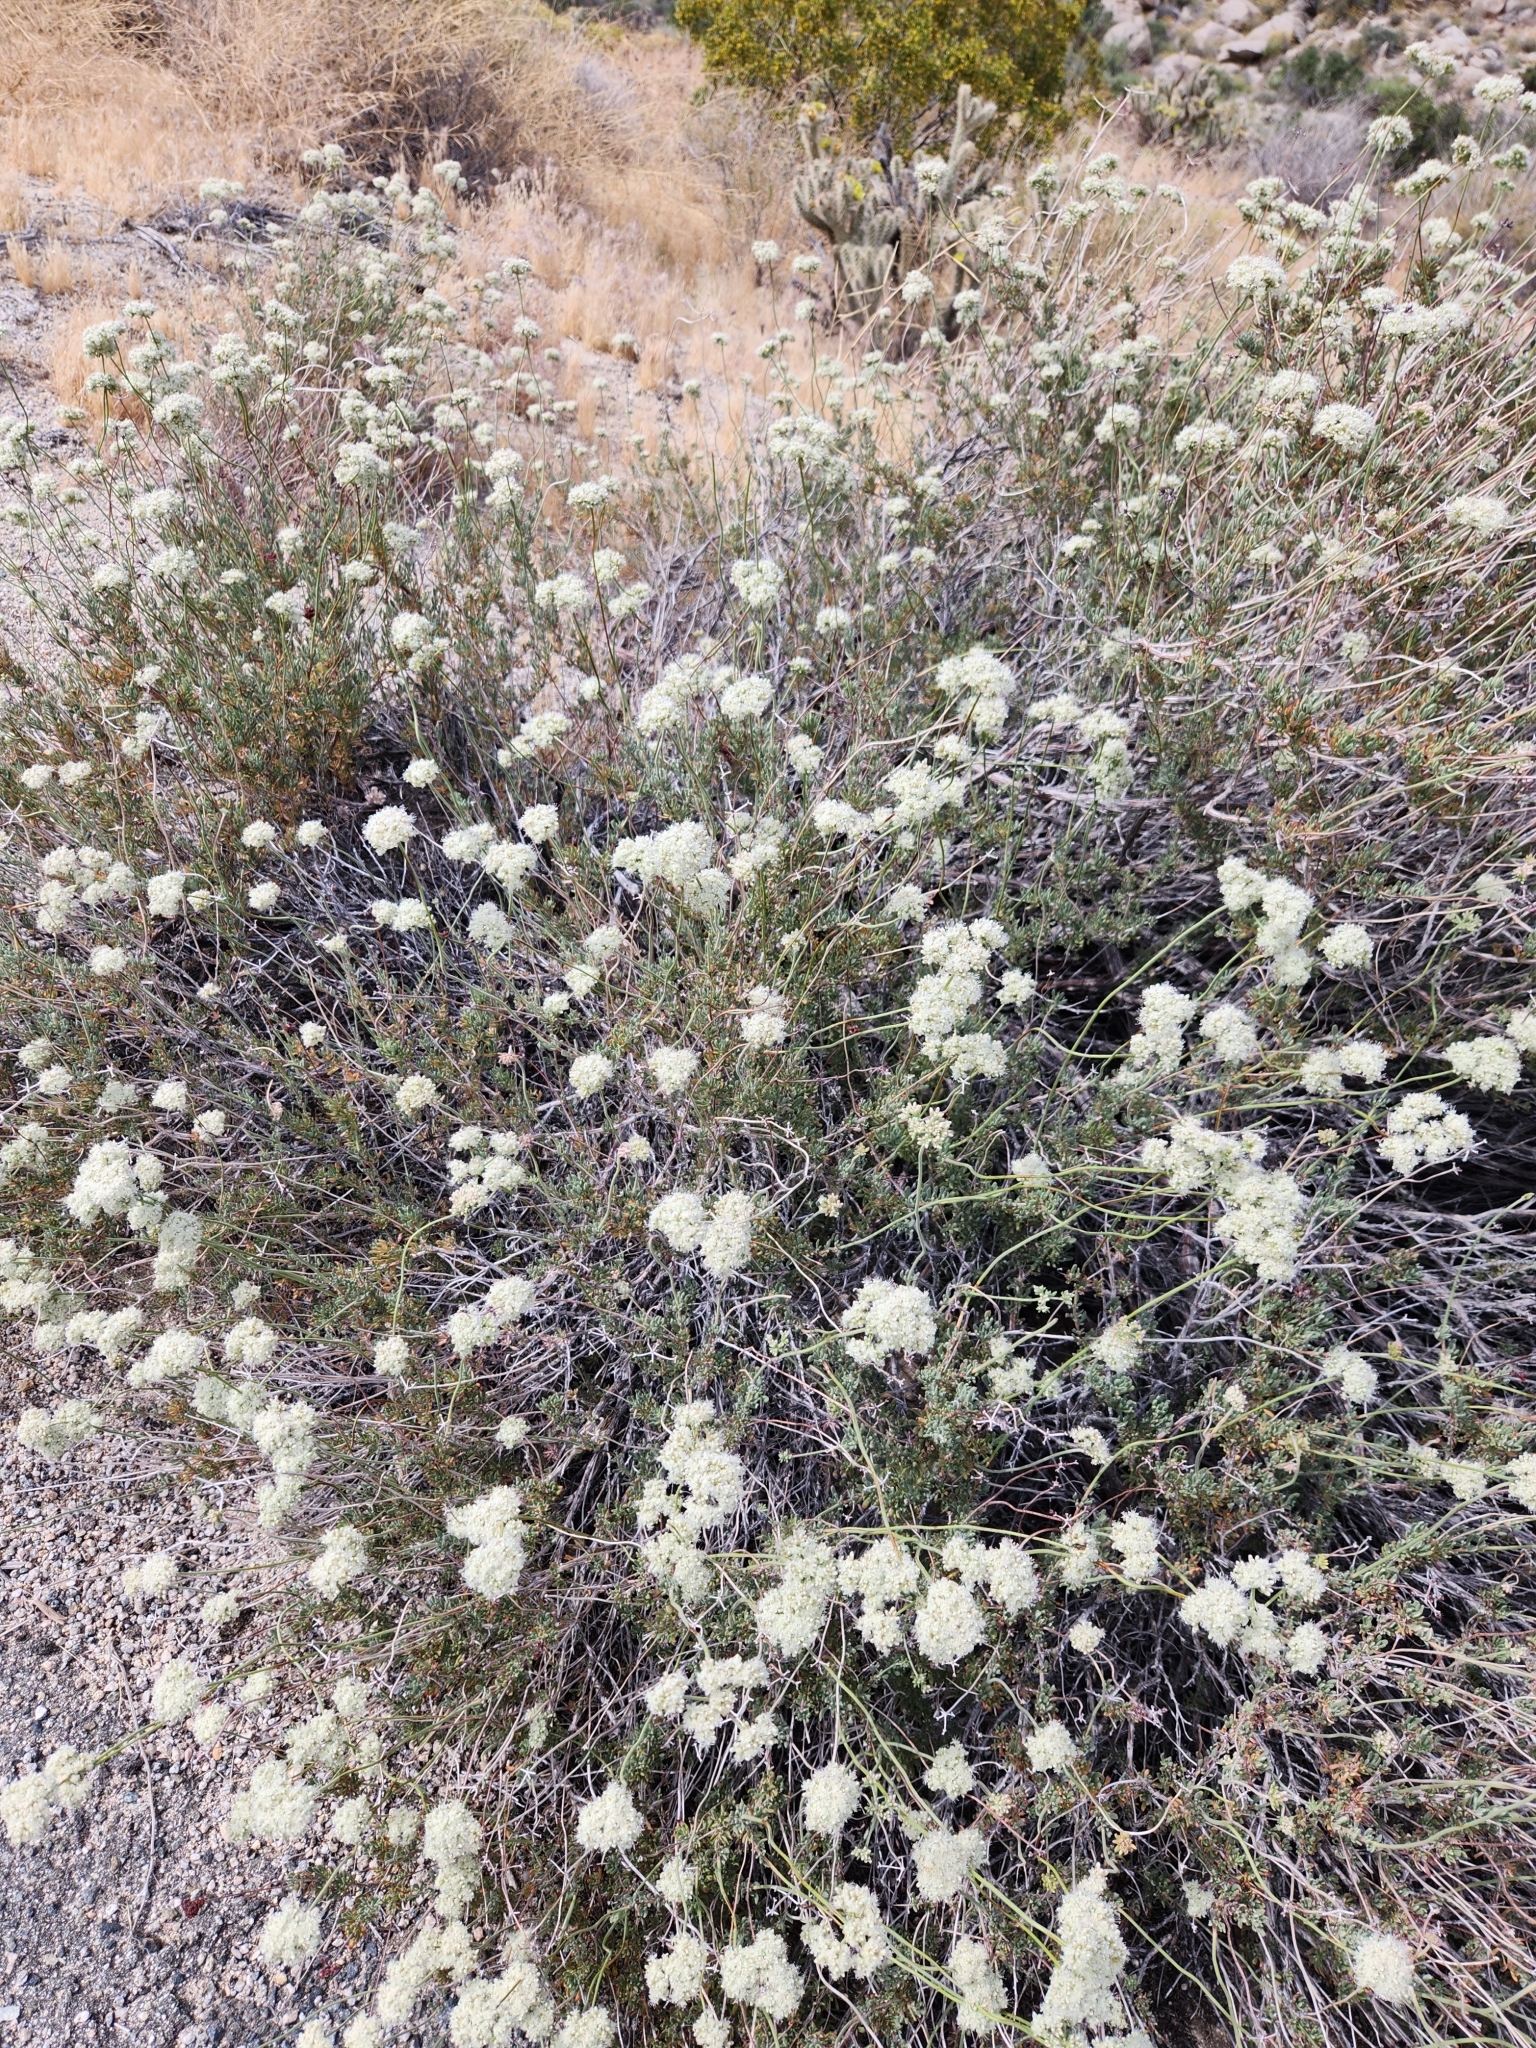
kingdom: Plantae
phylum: Tracheophyta
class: Magnoliopsida
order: Caryophyllales
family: Polygonaceae
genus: Eriogonum
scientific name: Eriogonum fasciculatum
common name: California wild buckwheat
